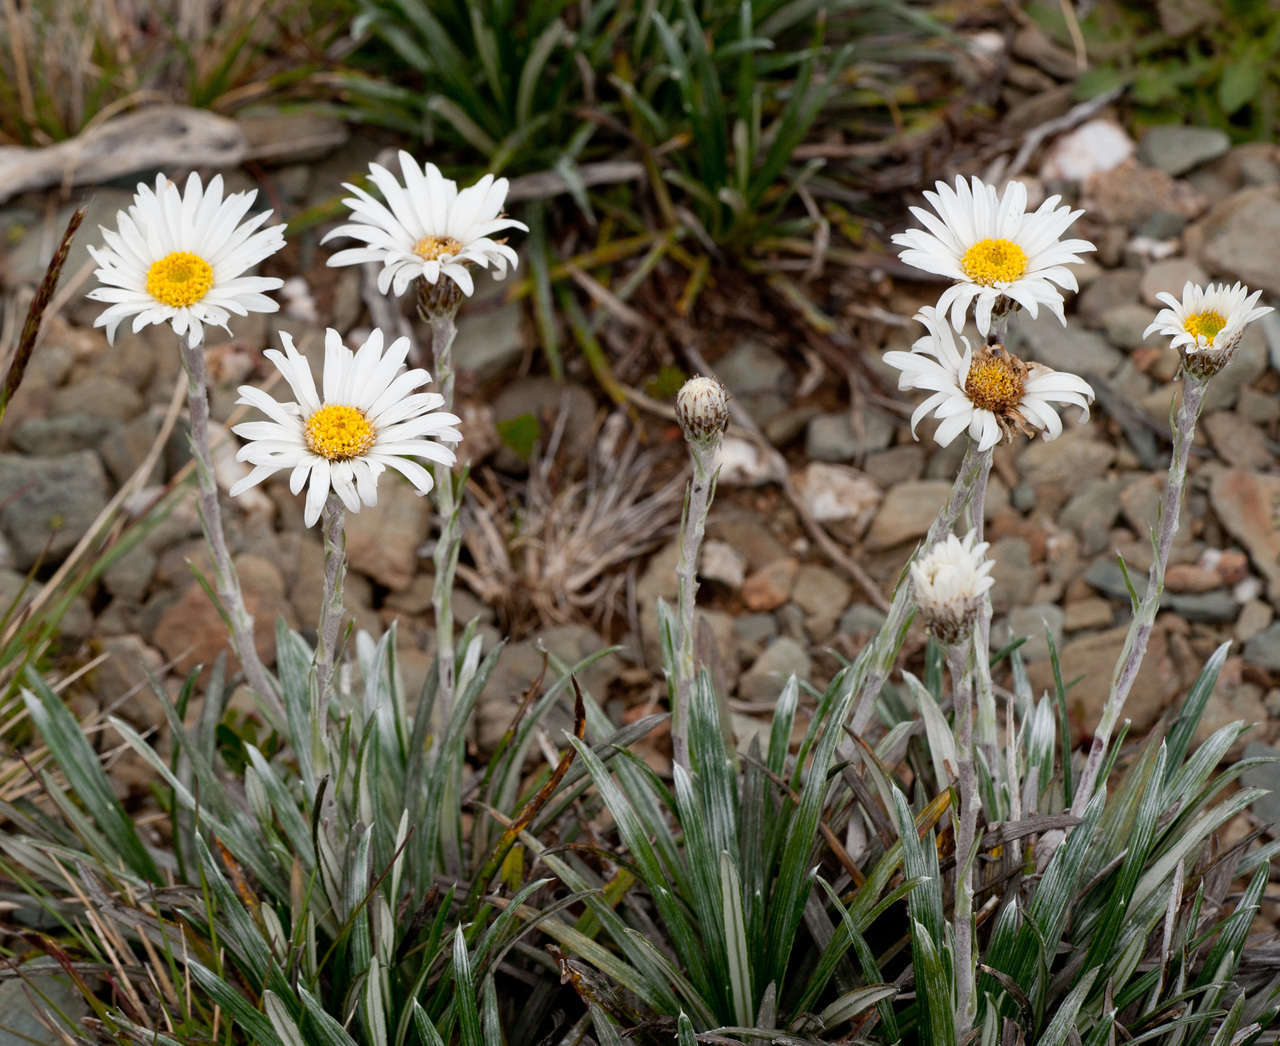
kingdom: Plantae
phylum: Tracheophyta
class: Magnoliopsida
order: Asterales
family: Asteraceae
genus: Celmisia
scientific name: Celmisia costiniana
